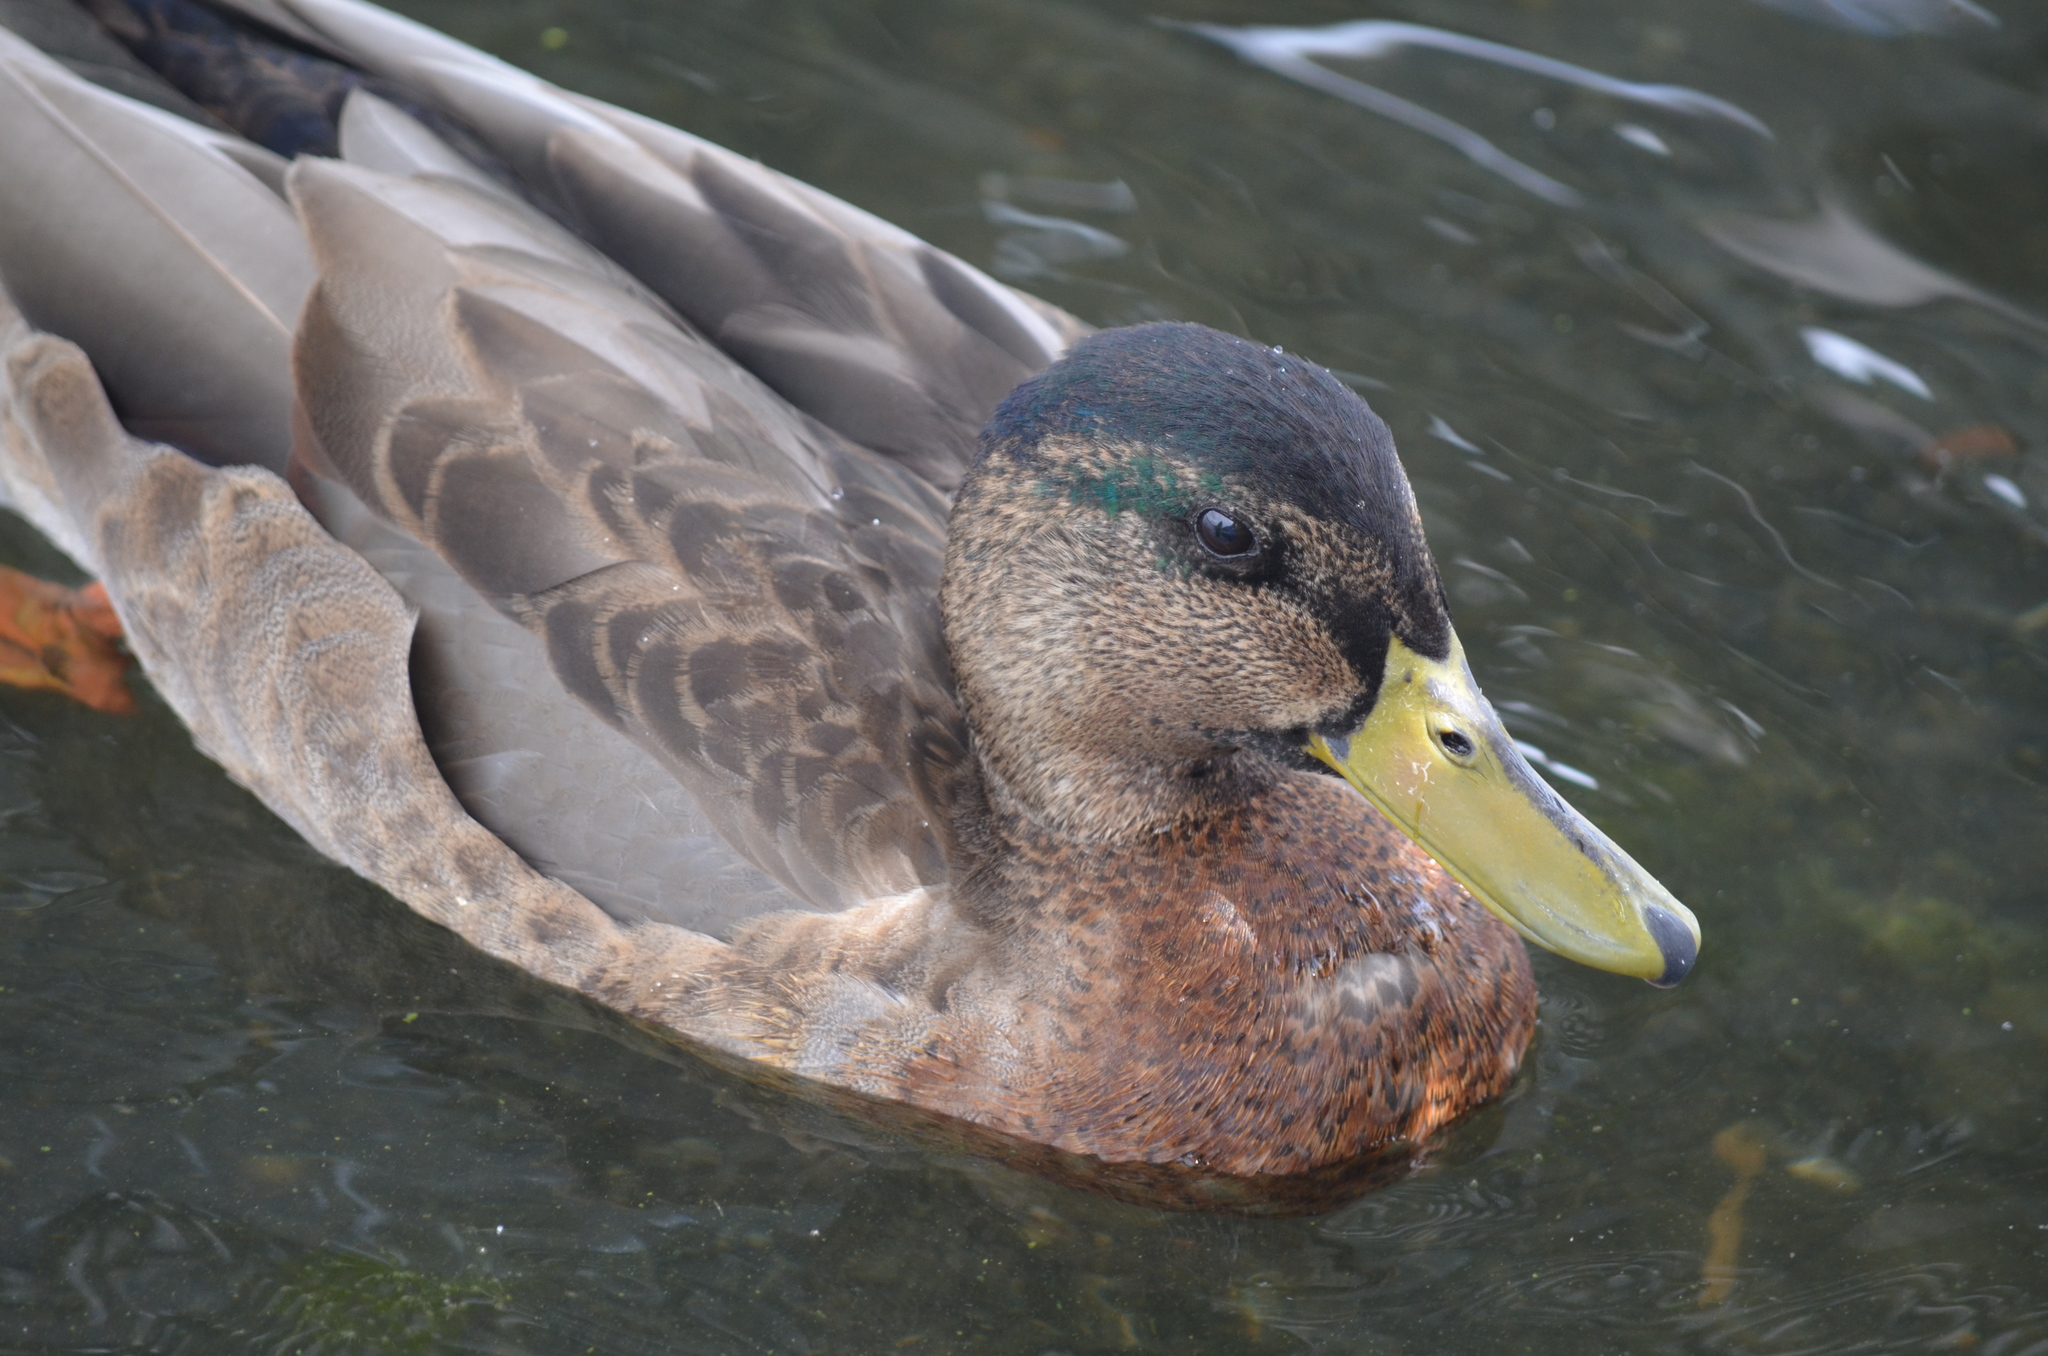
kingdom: Animalia
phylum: Chordata
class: Aves
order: Anseriformes
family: Anatidae
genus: Anas
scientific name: Anas platyrhynchos
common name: Mallard
